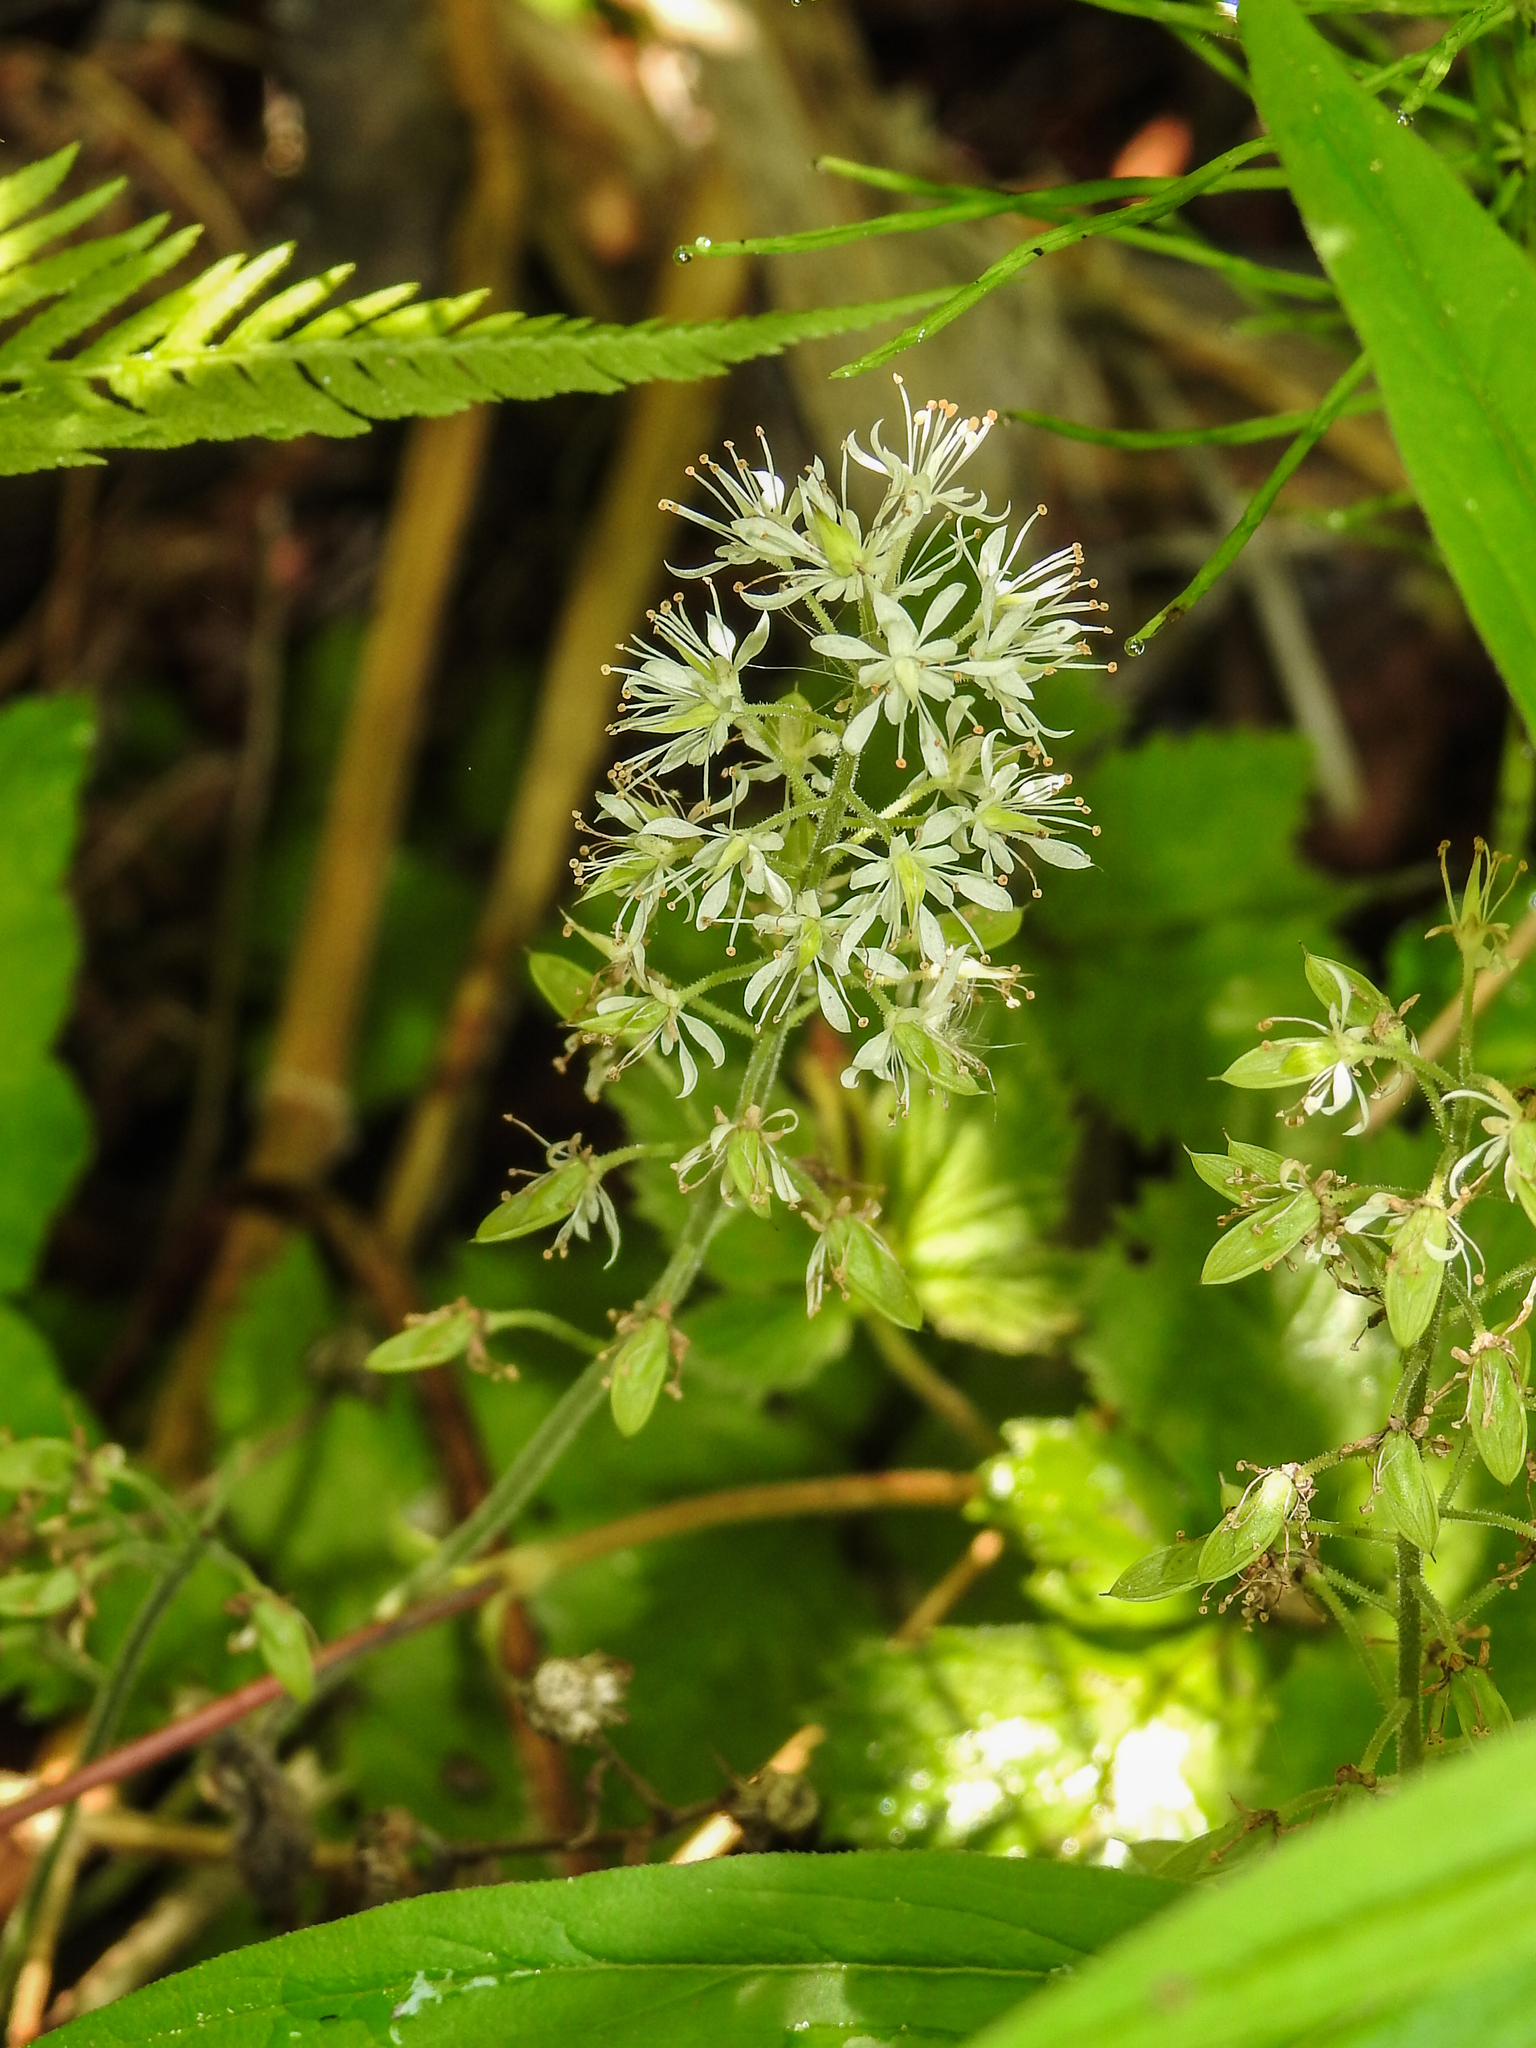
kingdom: Plantae
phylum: Tracheophyta
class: Magnoliopsida
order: Saxifragales
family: Saxifragaceae
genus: Tiarella
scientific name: Tiarella stolonifera
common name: Stoloniferous foamflower
